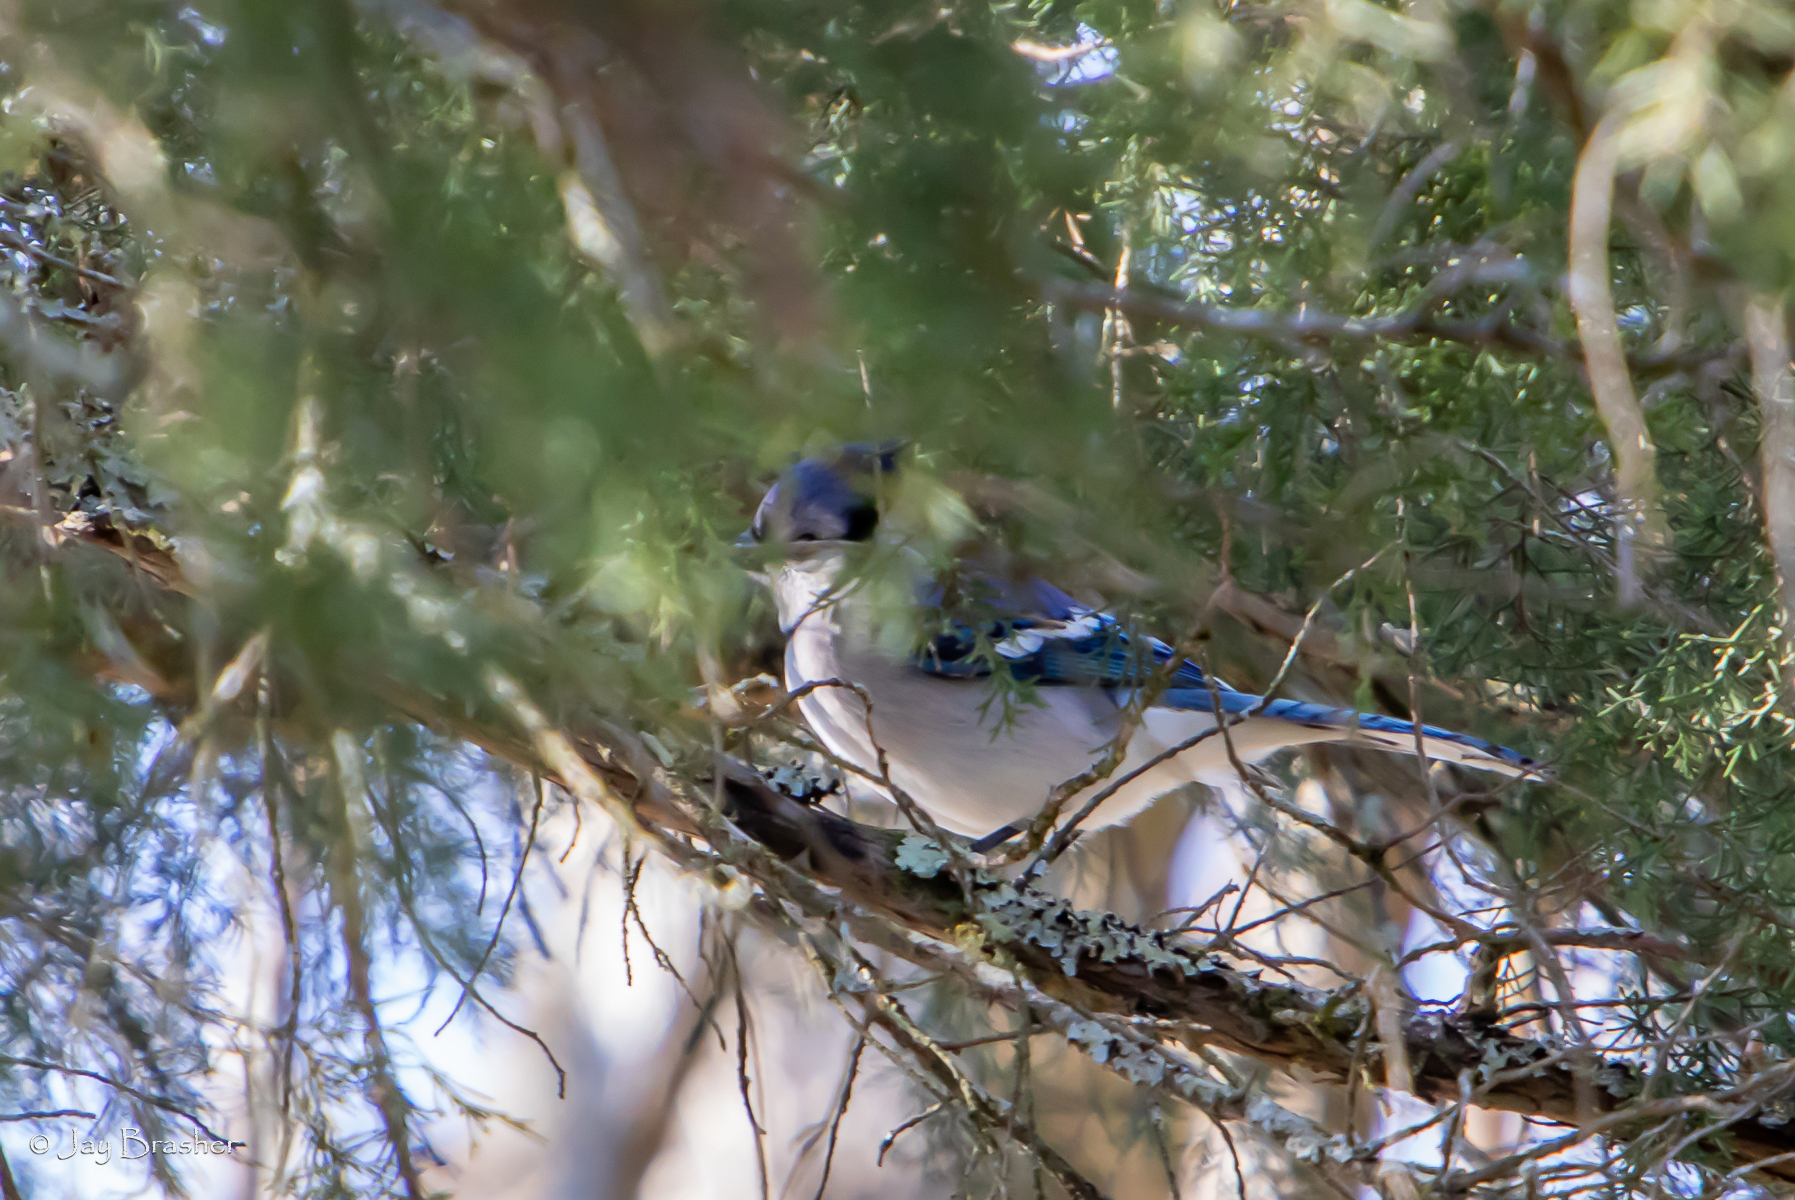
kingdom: Animalia
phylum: Chordata
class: Aves
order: Passeriformes
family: Corvidae
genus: Cyanocitta
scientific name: Cyanocitta cristata
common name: Blue jay
